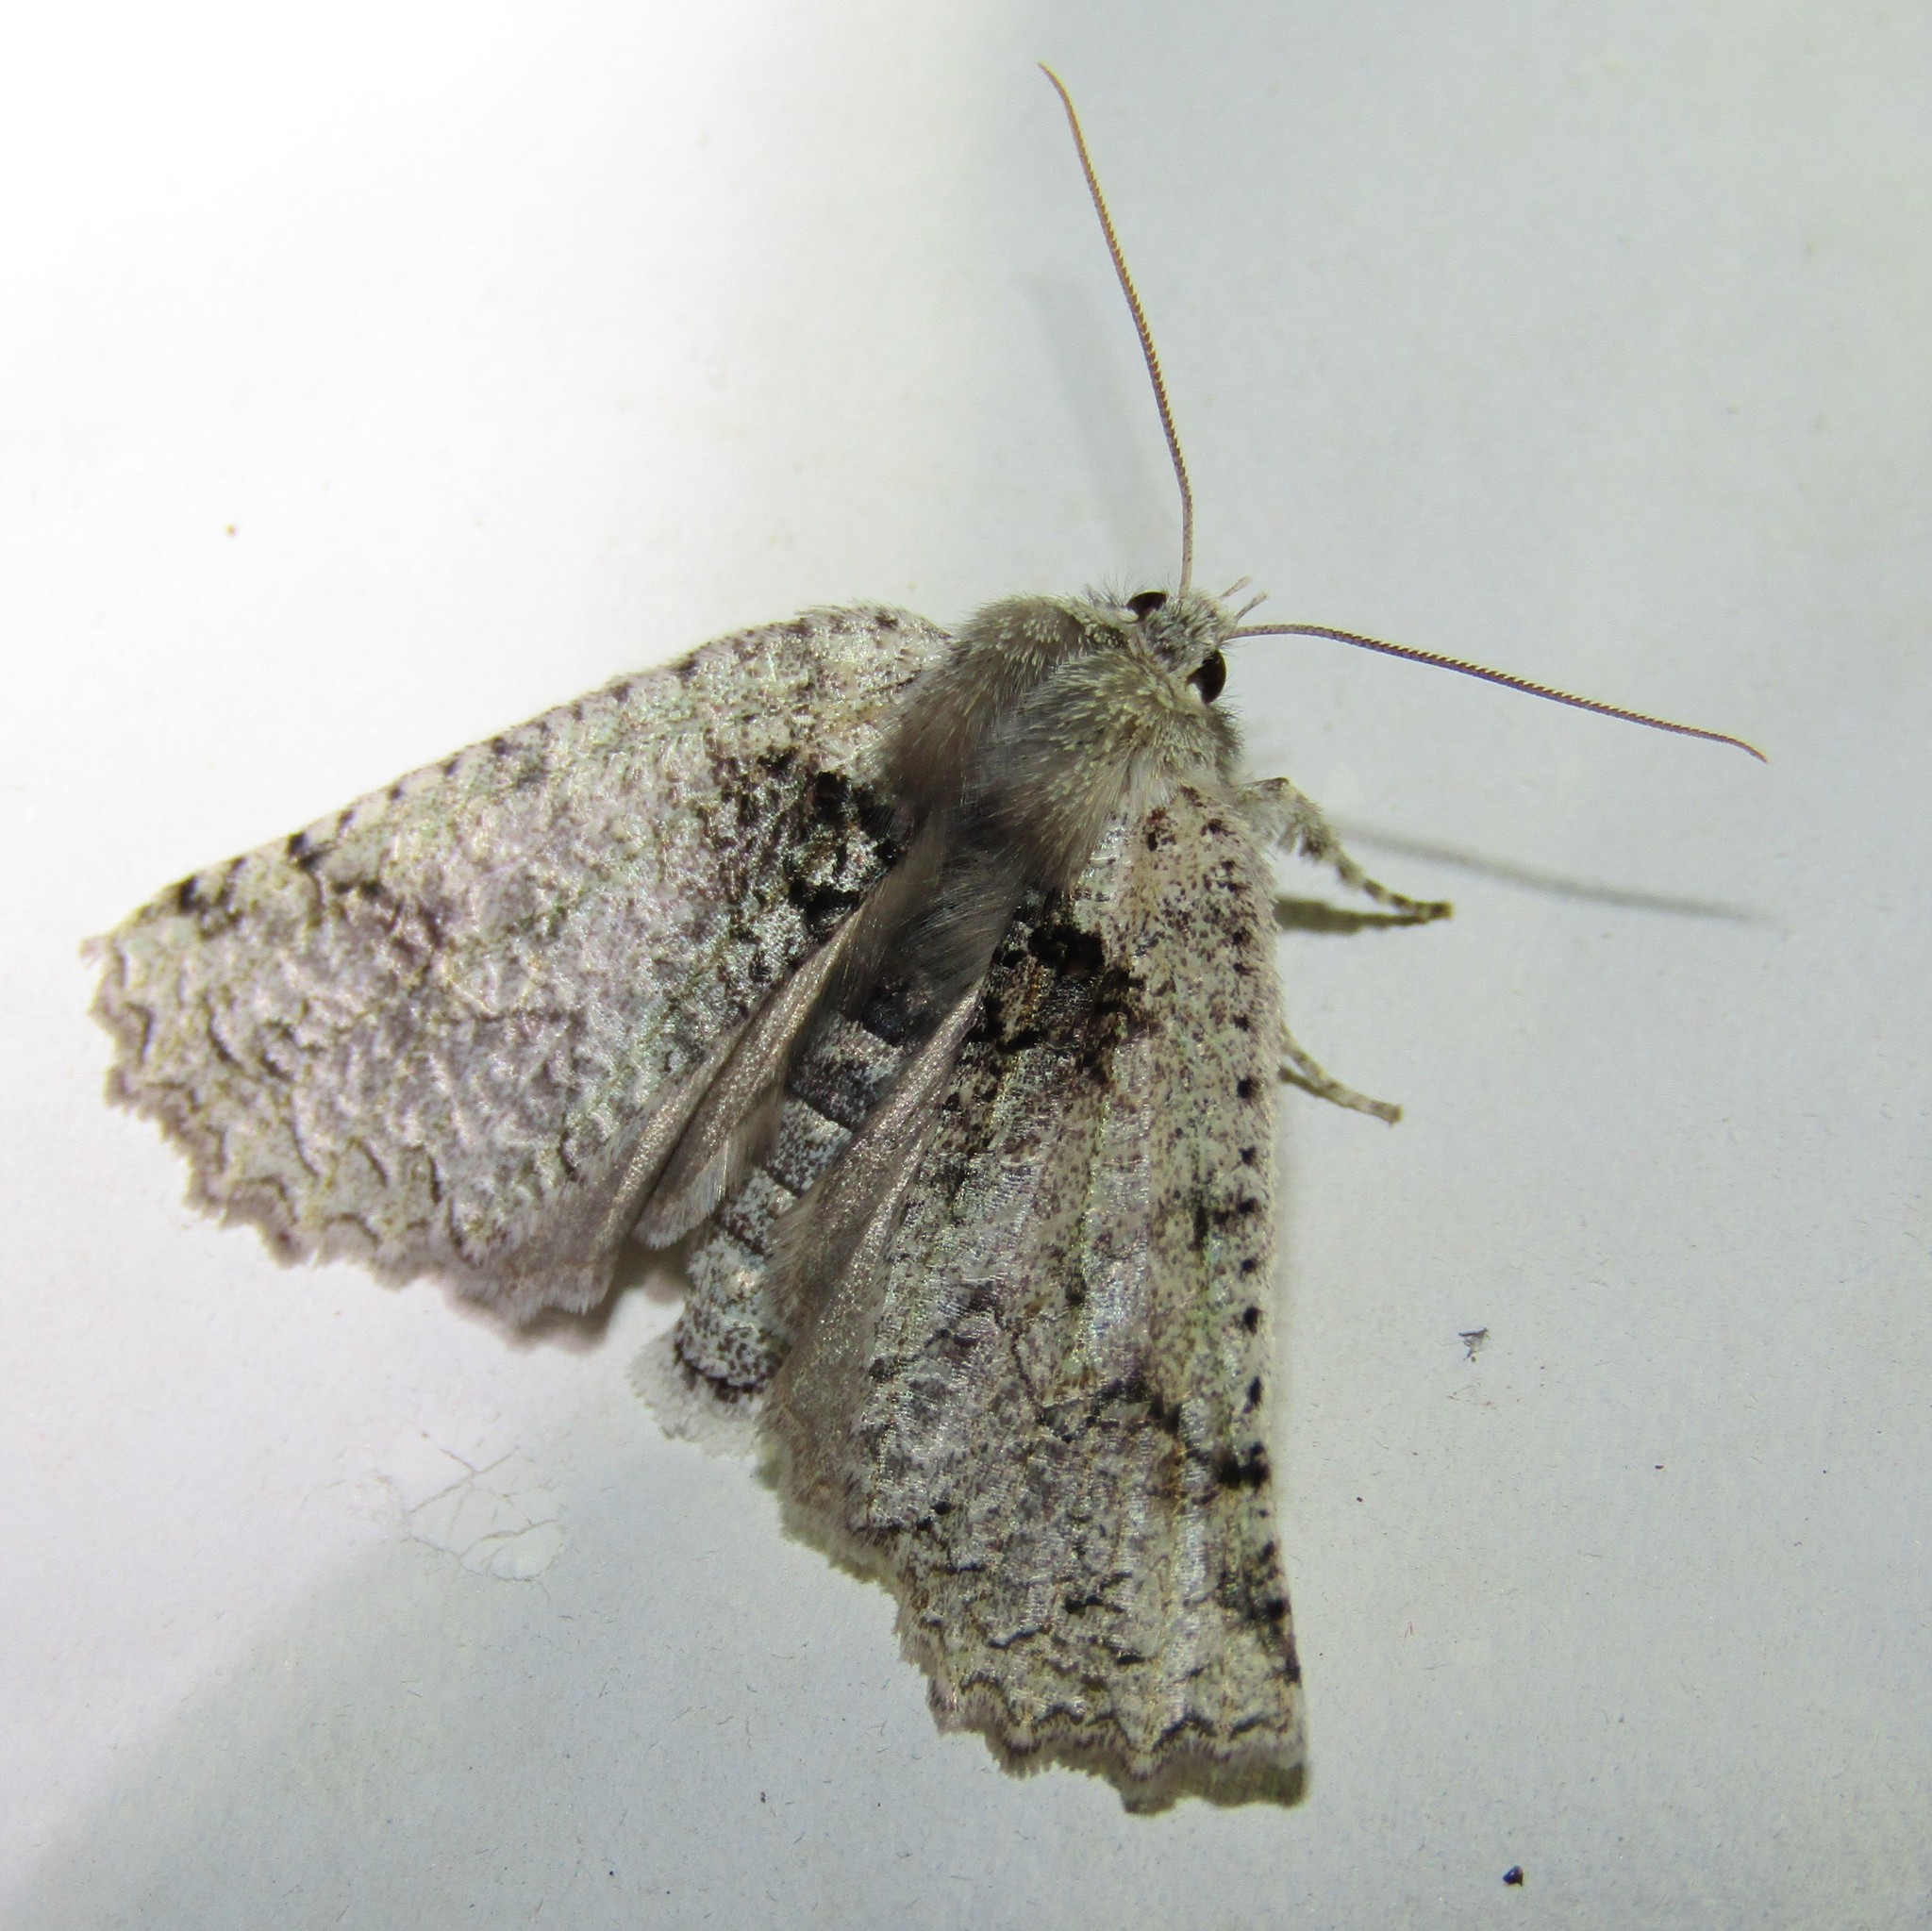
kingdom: Animalia
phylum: Arthropoda
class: Insecta
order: Lepidoptera
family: Geometridae
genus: Declana
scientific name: Declana floccosa
